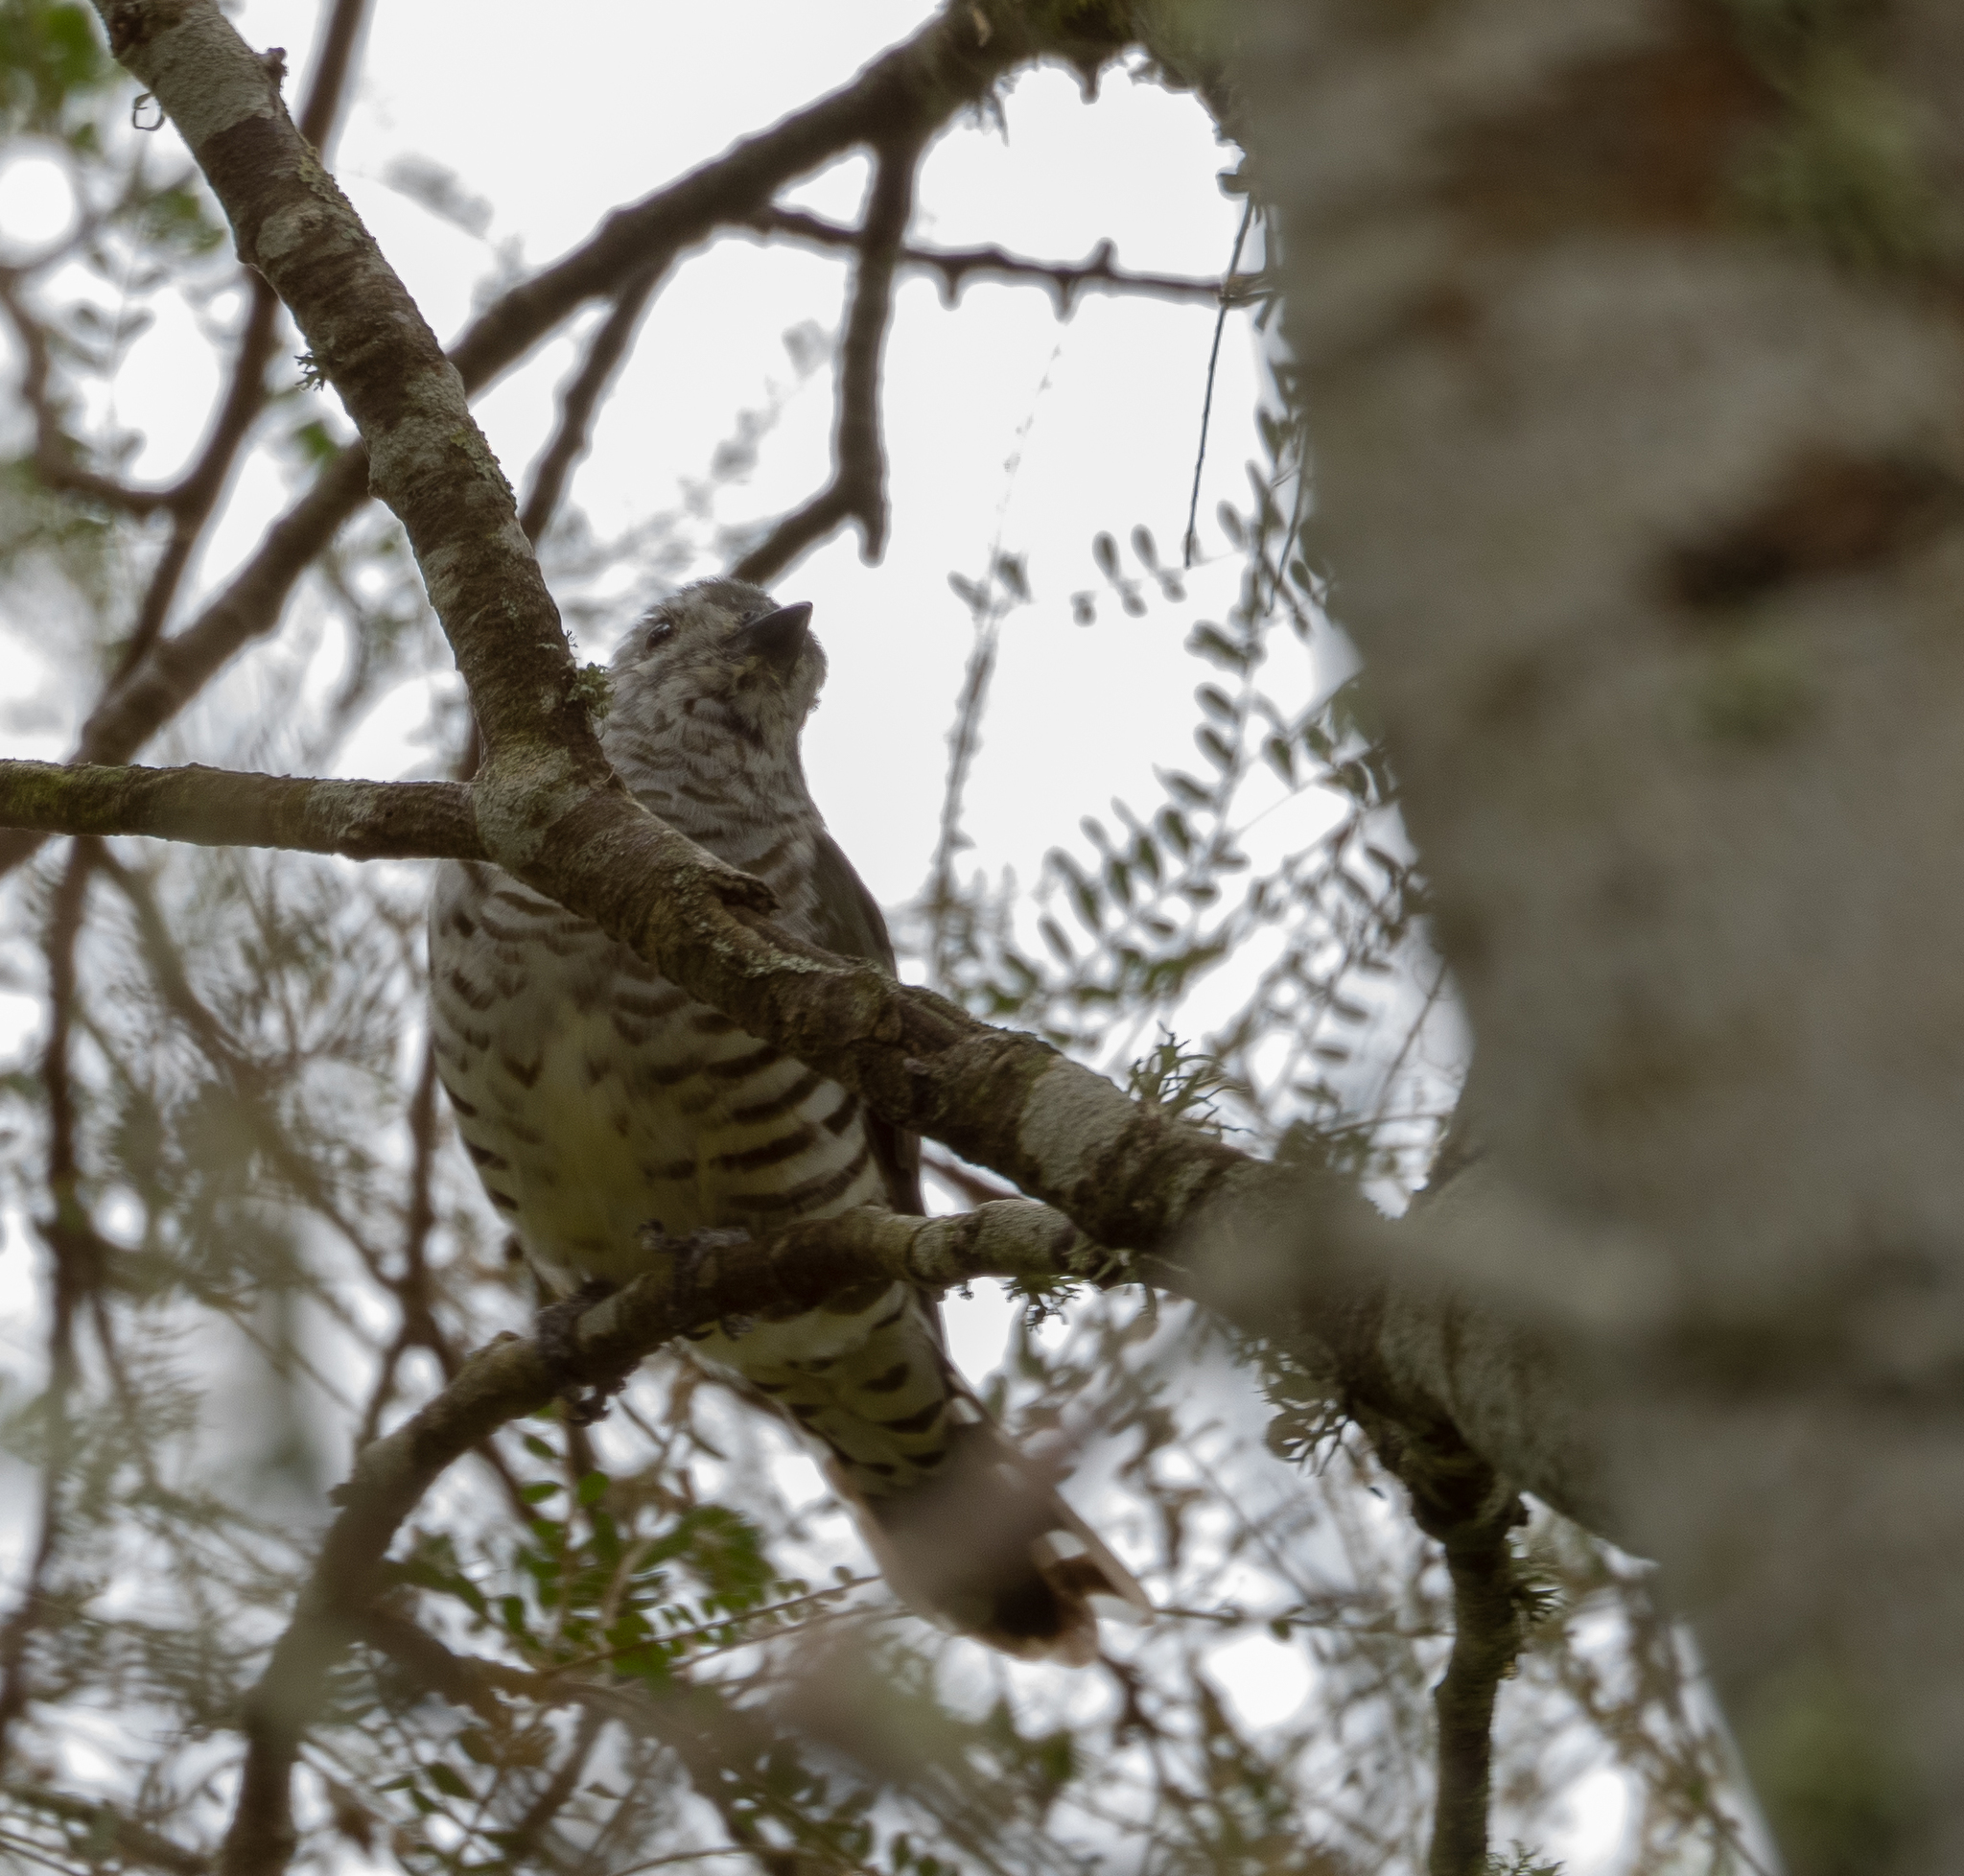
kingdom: Animalia
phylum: Chordata
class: Aves
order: Cuculiformes
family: Cuculidae
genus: Chrysococcyx
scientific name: Chrysococcyx lucidus
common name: Shining bronze cuckoo
